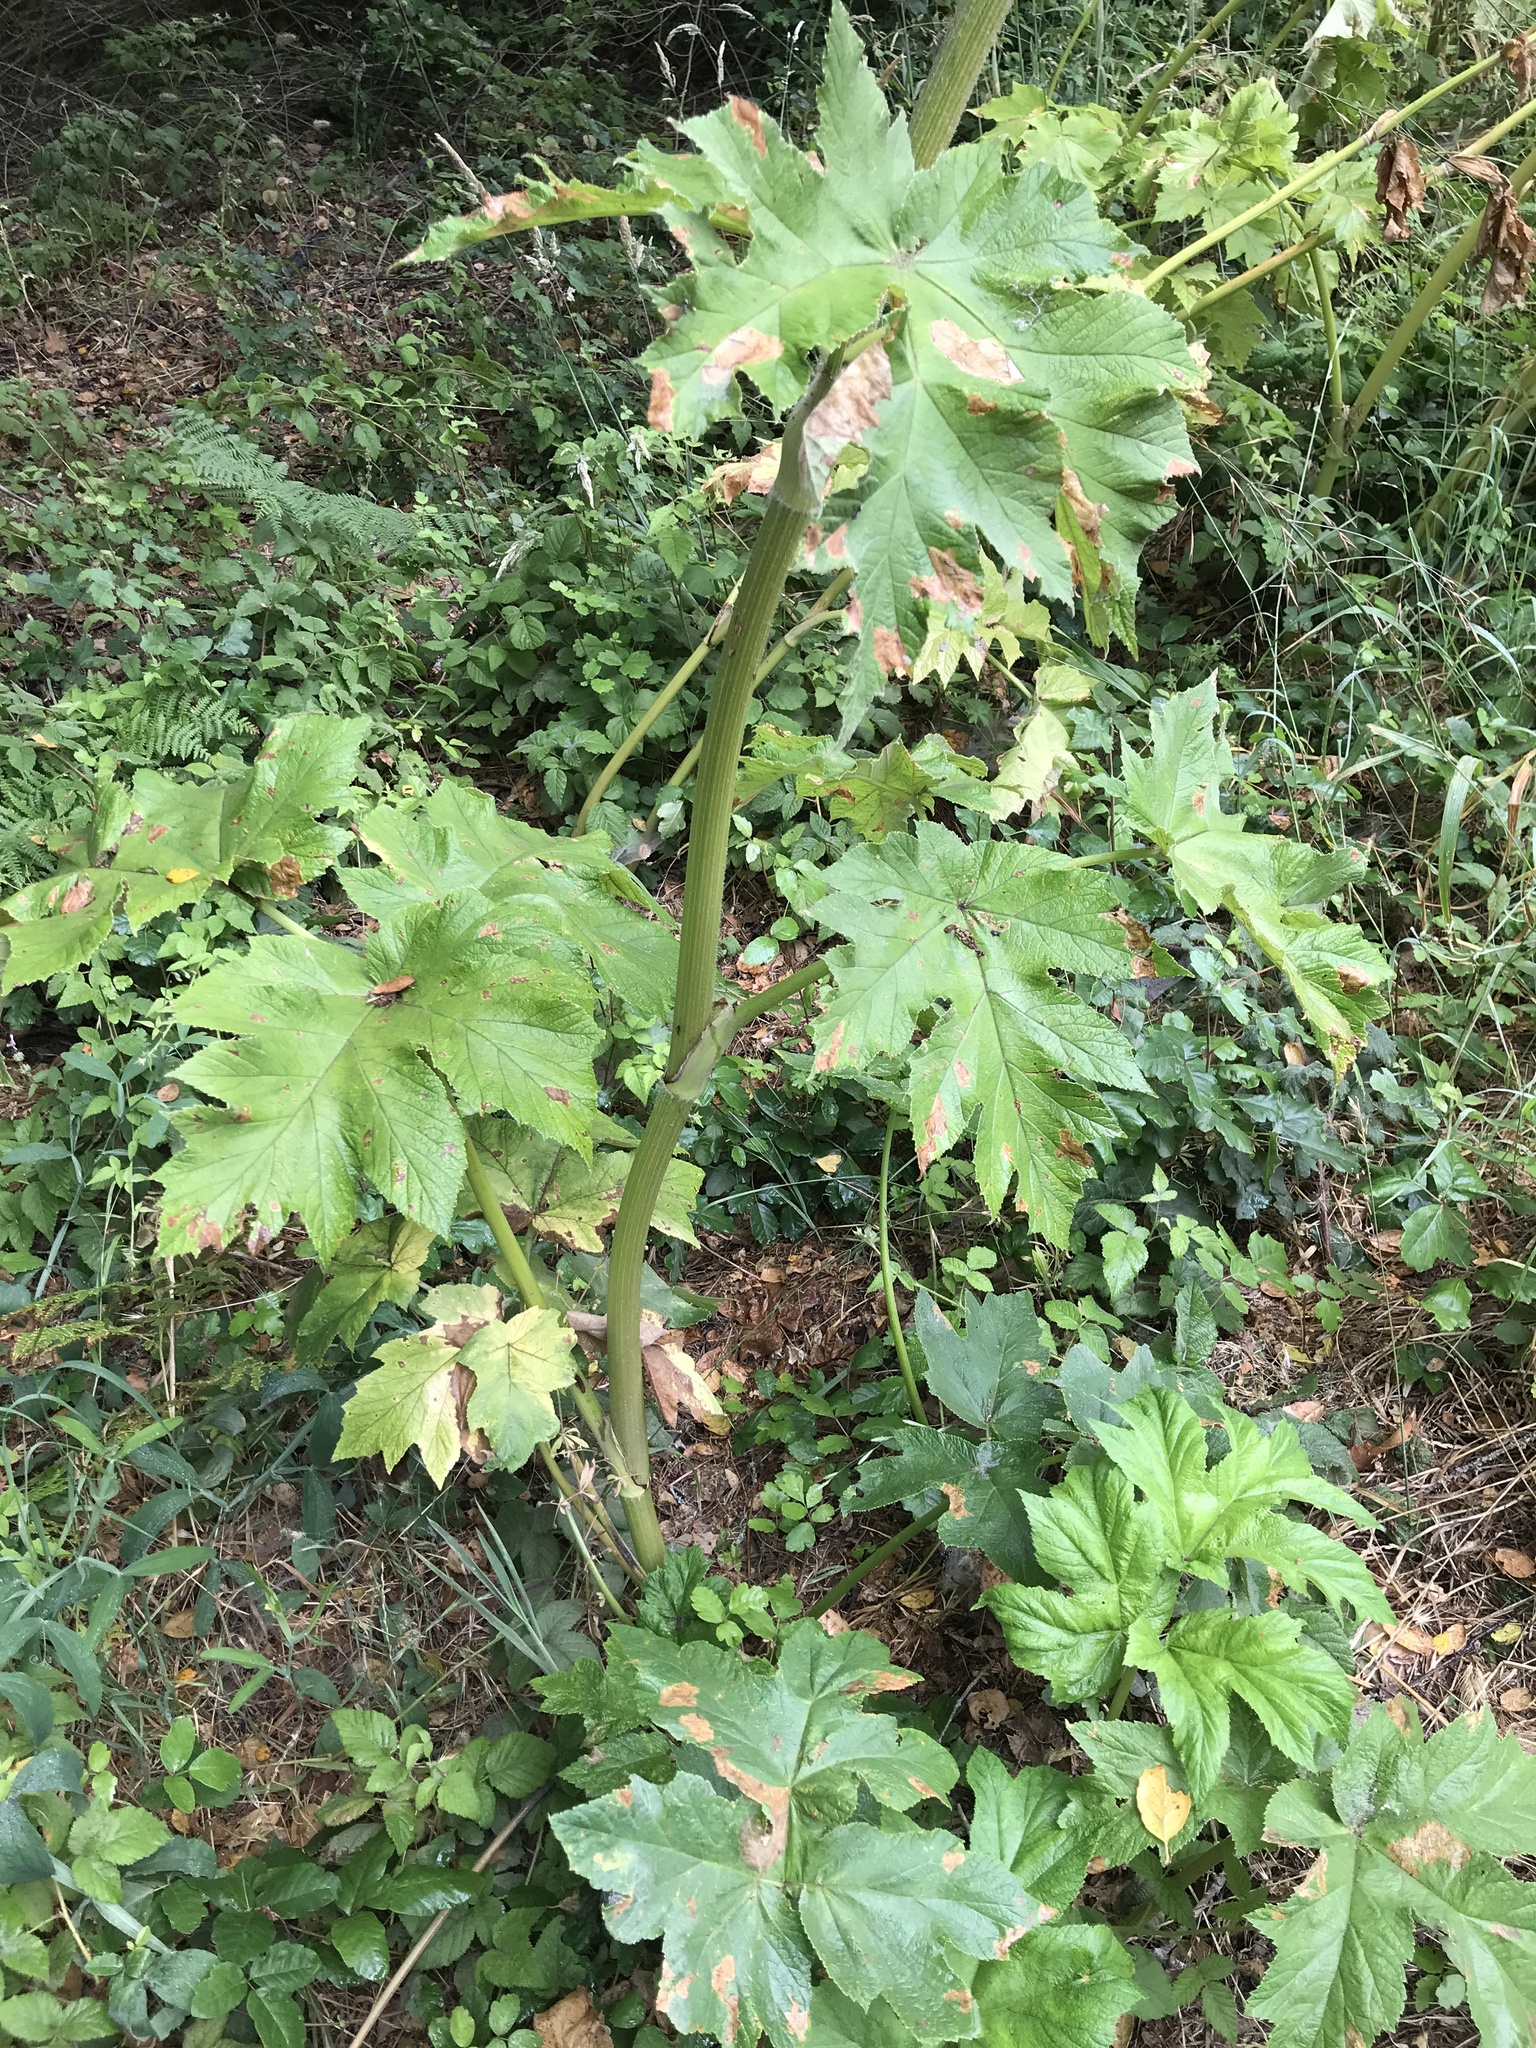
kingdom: Plantae
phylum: Tracheophyta
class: Magnoliopsida
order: Apiales
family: Apiaceae
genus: Heracleum
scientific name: Heracleum maximum
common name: American cow parsnip
